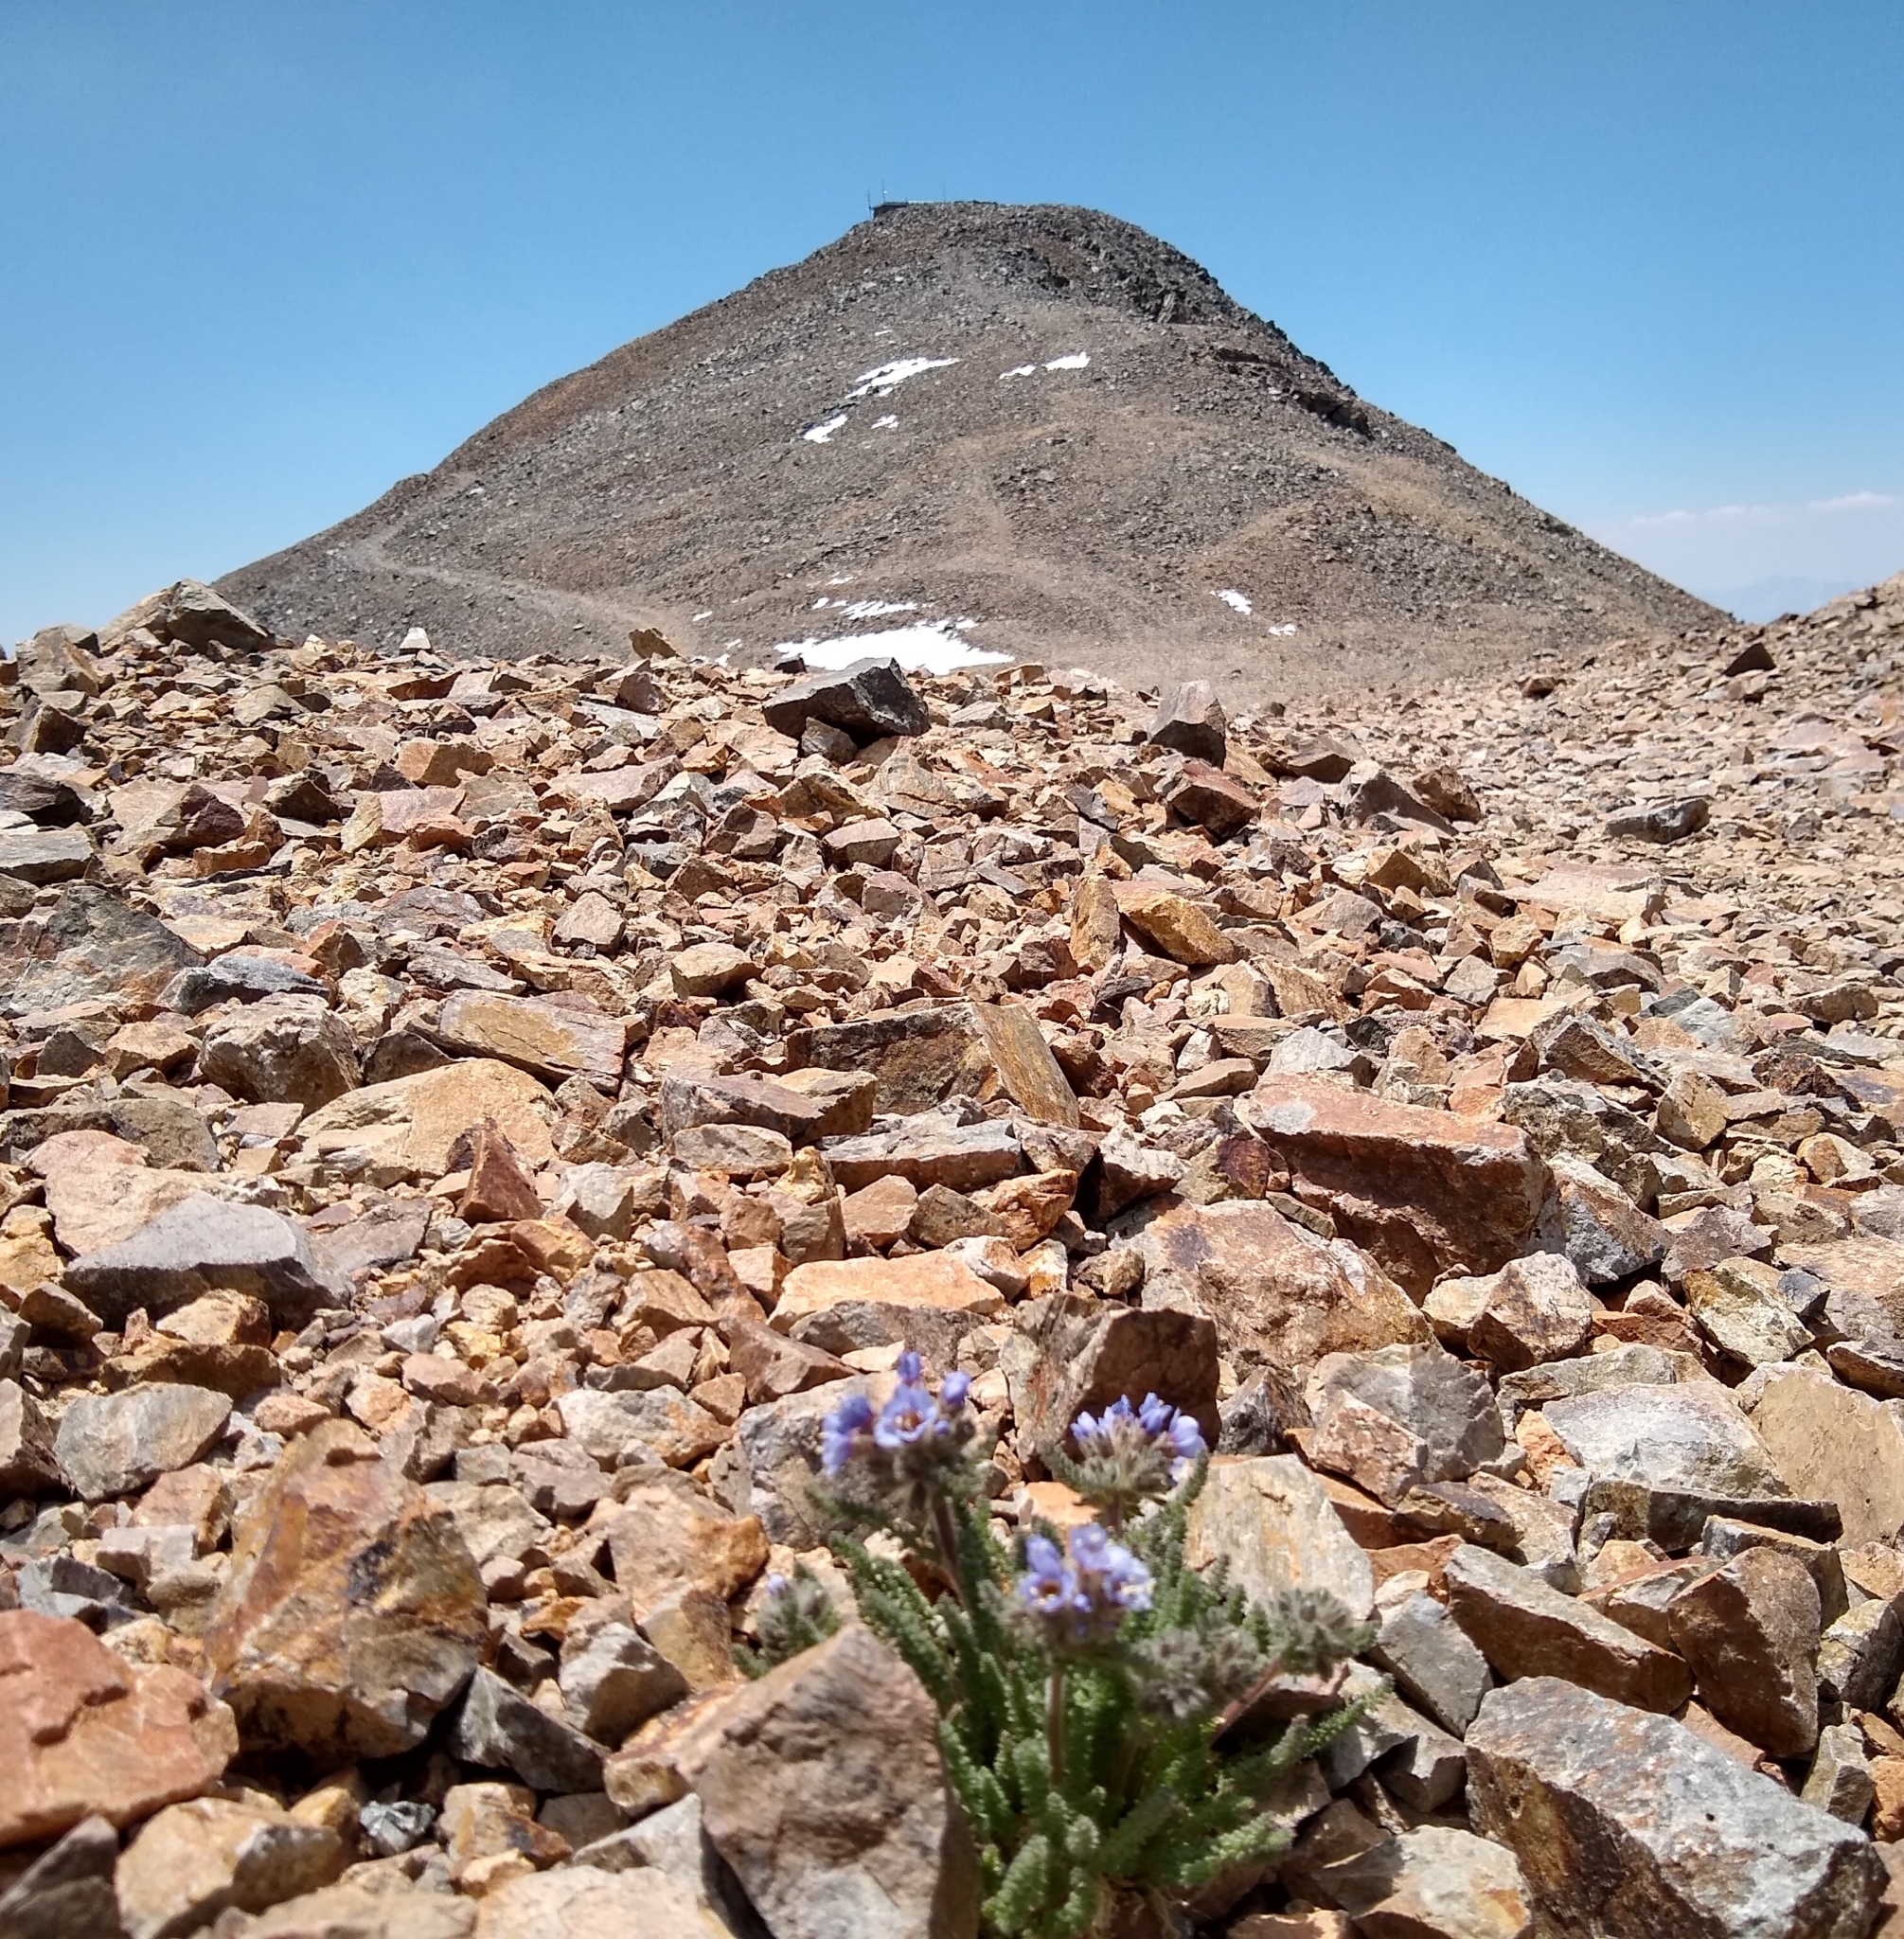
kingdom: Plantae
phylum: Tracheophyta
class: Magnoliopsida
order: Ericales
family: Polemoniaceae
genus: Polemonium
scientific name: Polemonium chartaceum
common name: Mason's sky-pilot
